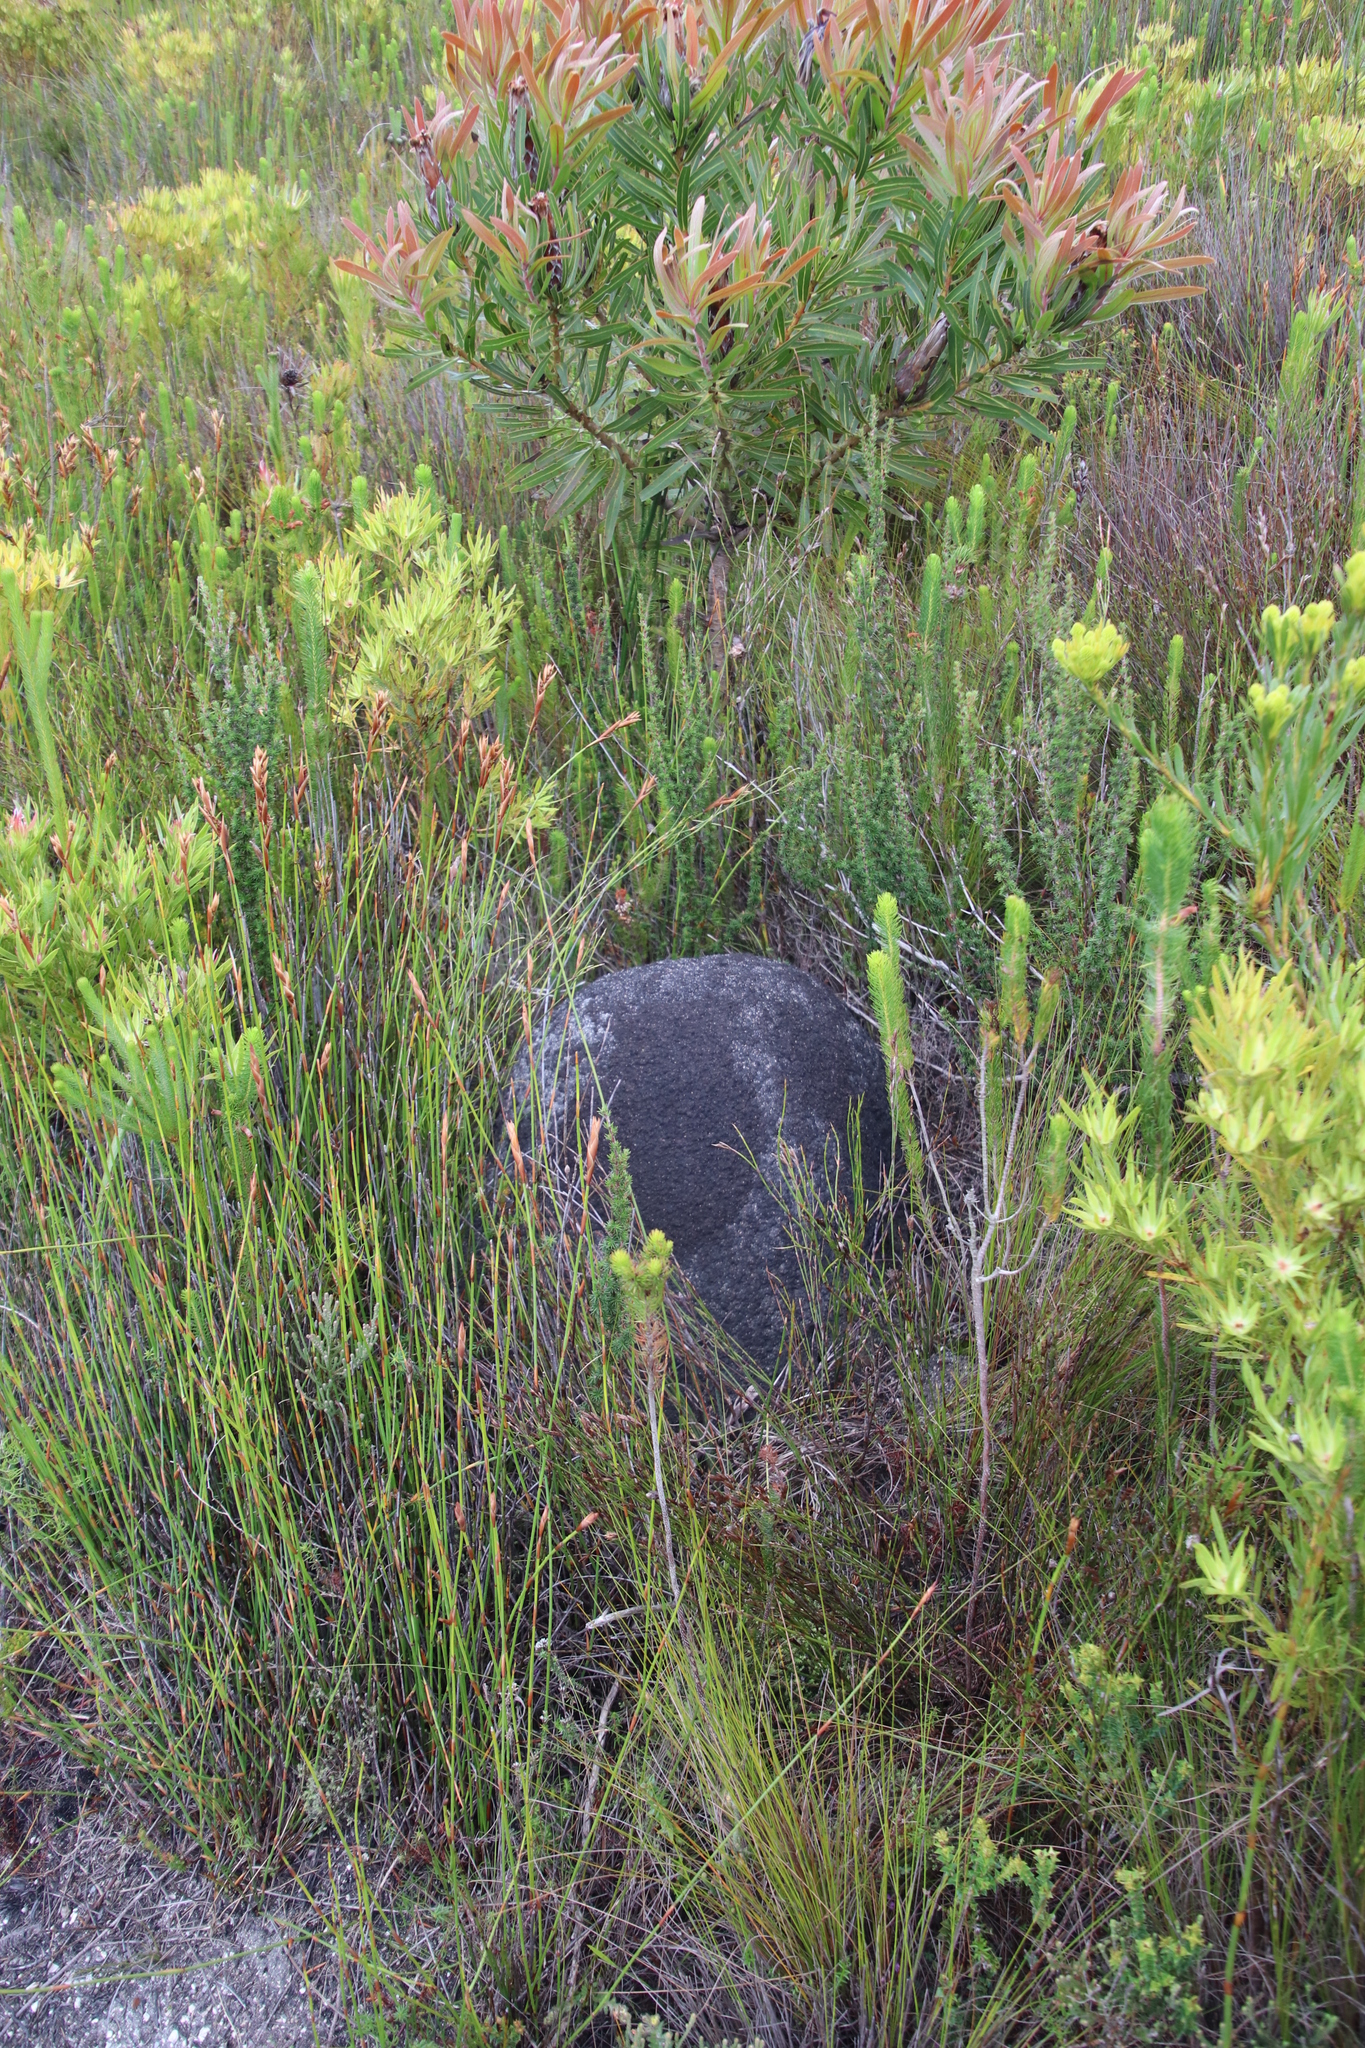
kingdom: Animalia
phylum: Arthropoda
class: Insecta
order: Blattodea
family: Termitidae
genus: Amitermes
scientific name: Amitermes hastatus
